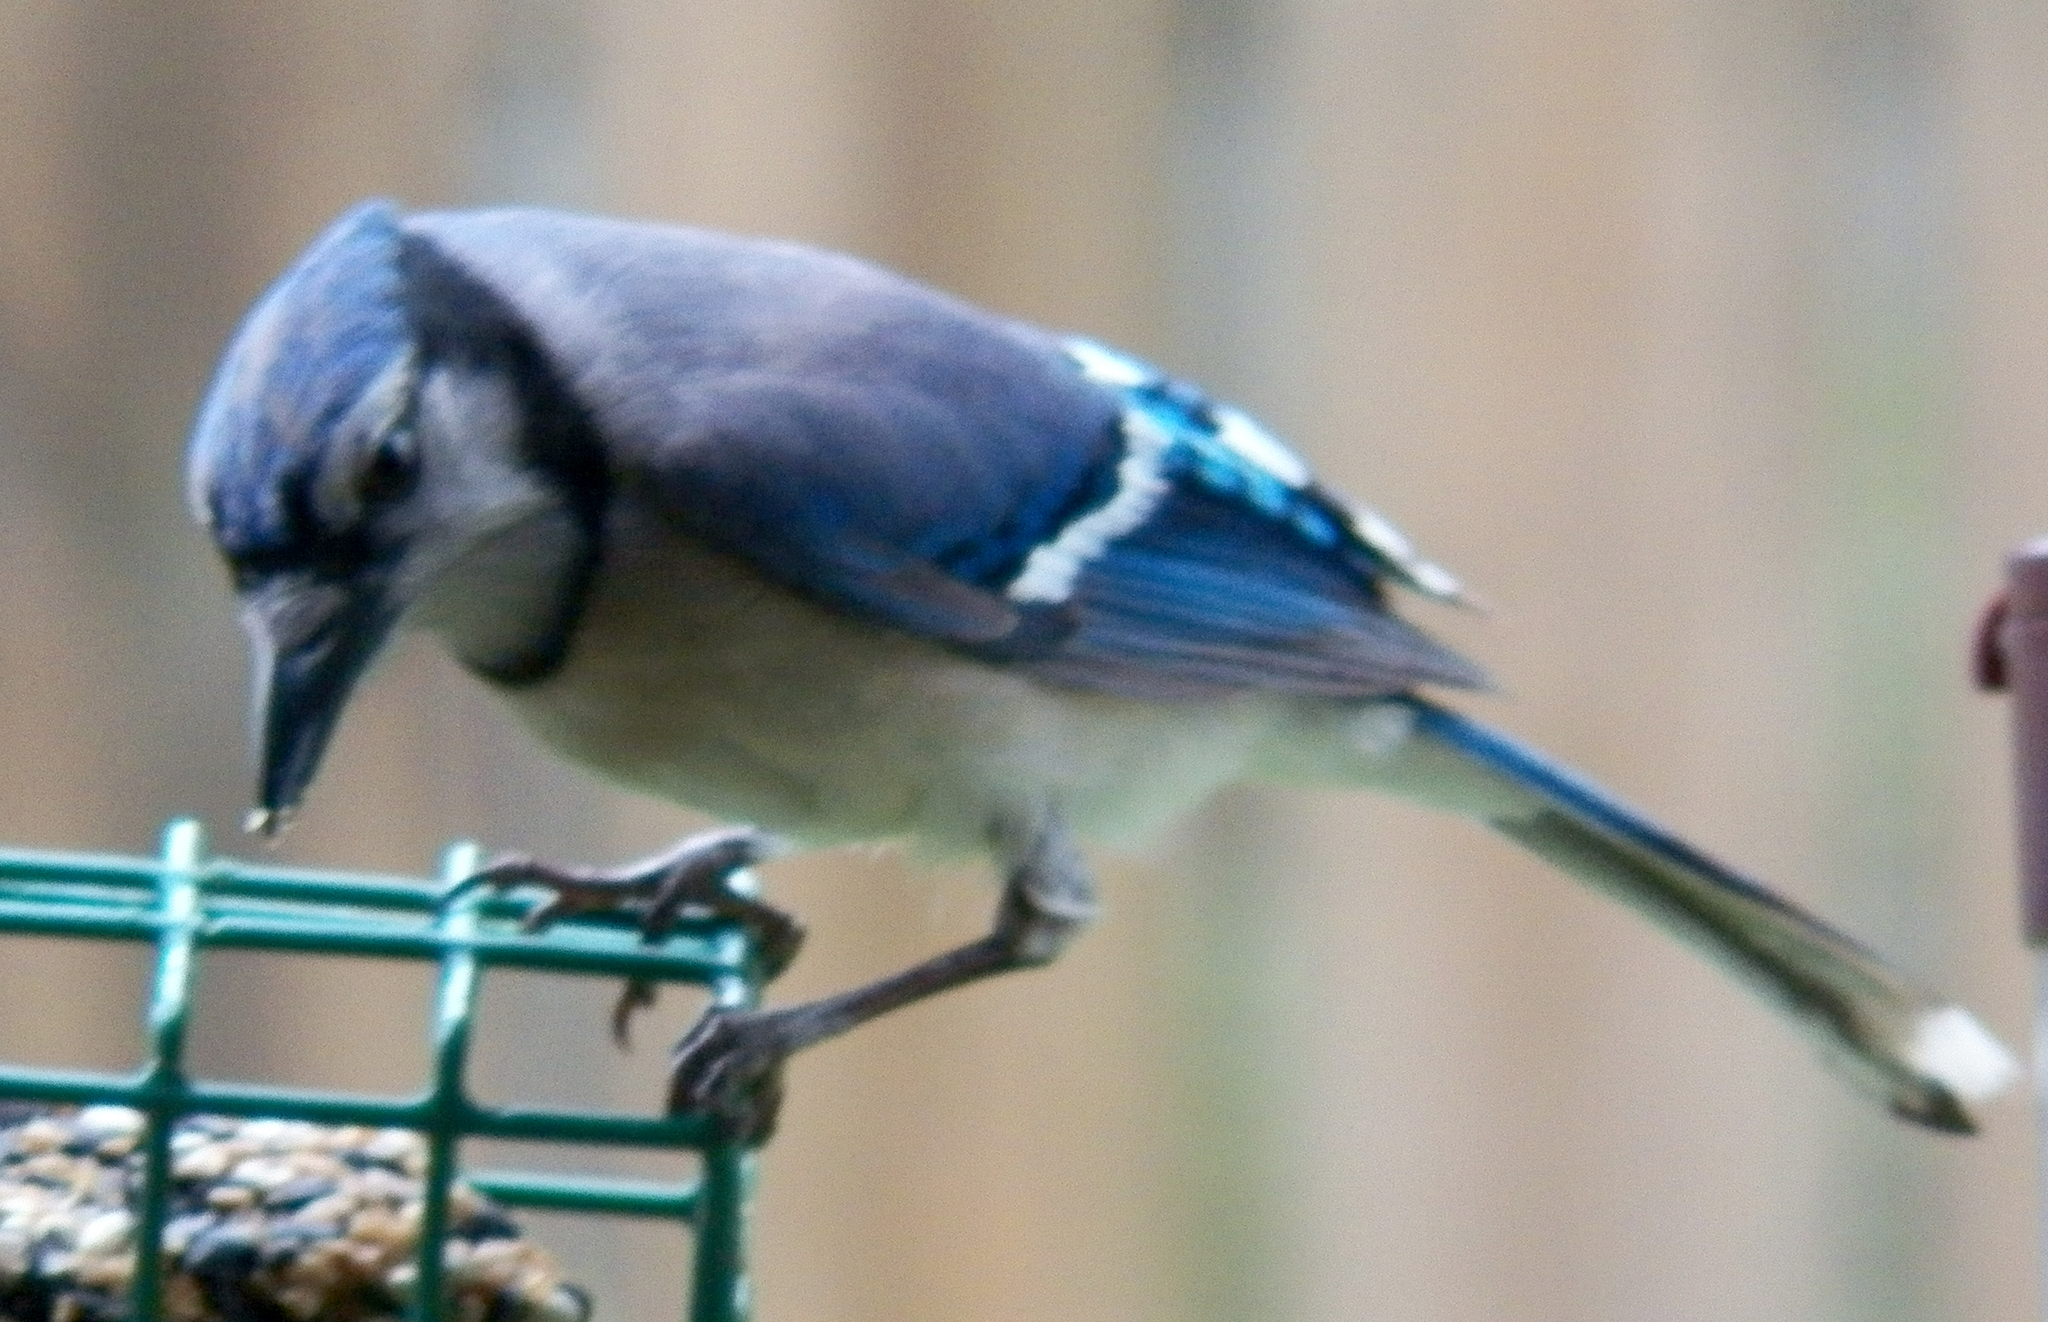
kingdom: Animalia
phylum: Chordata
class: Aves
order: Passeriformes
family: Corvidae
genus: Cyanocitta
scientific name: Cyanocitta cristata
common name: Blue jay
